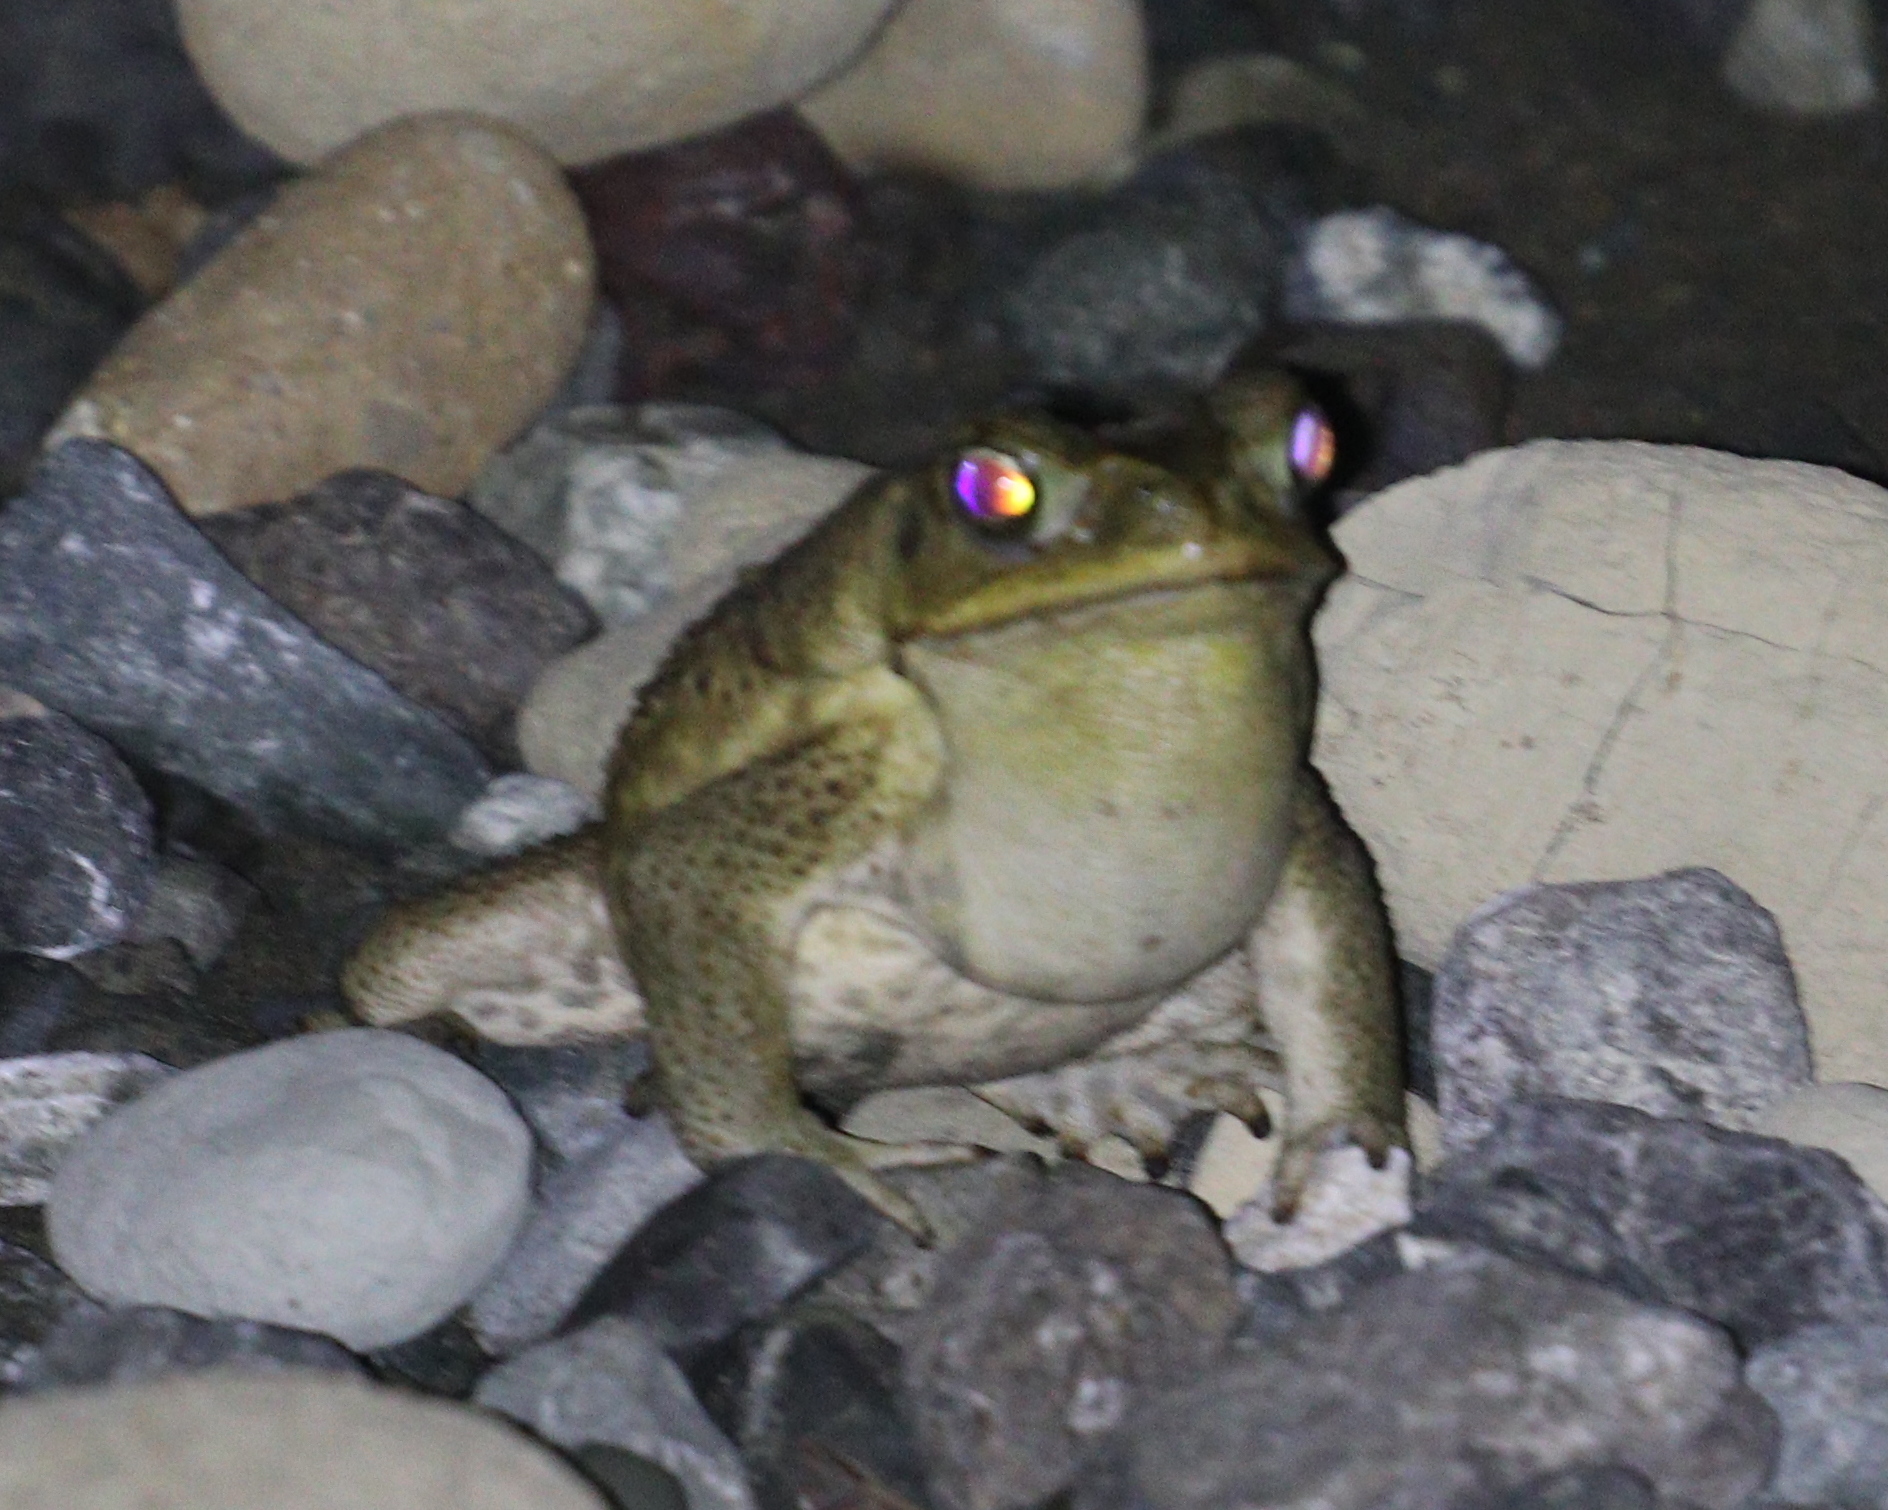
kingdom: Animalia
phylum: Chordata
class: Amphibia
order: Anura
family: Bufonidae
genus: Rhinella
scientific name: Rhinella horribilis
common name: Mesoamerican cane toad
